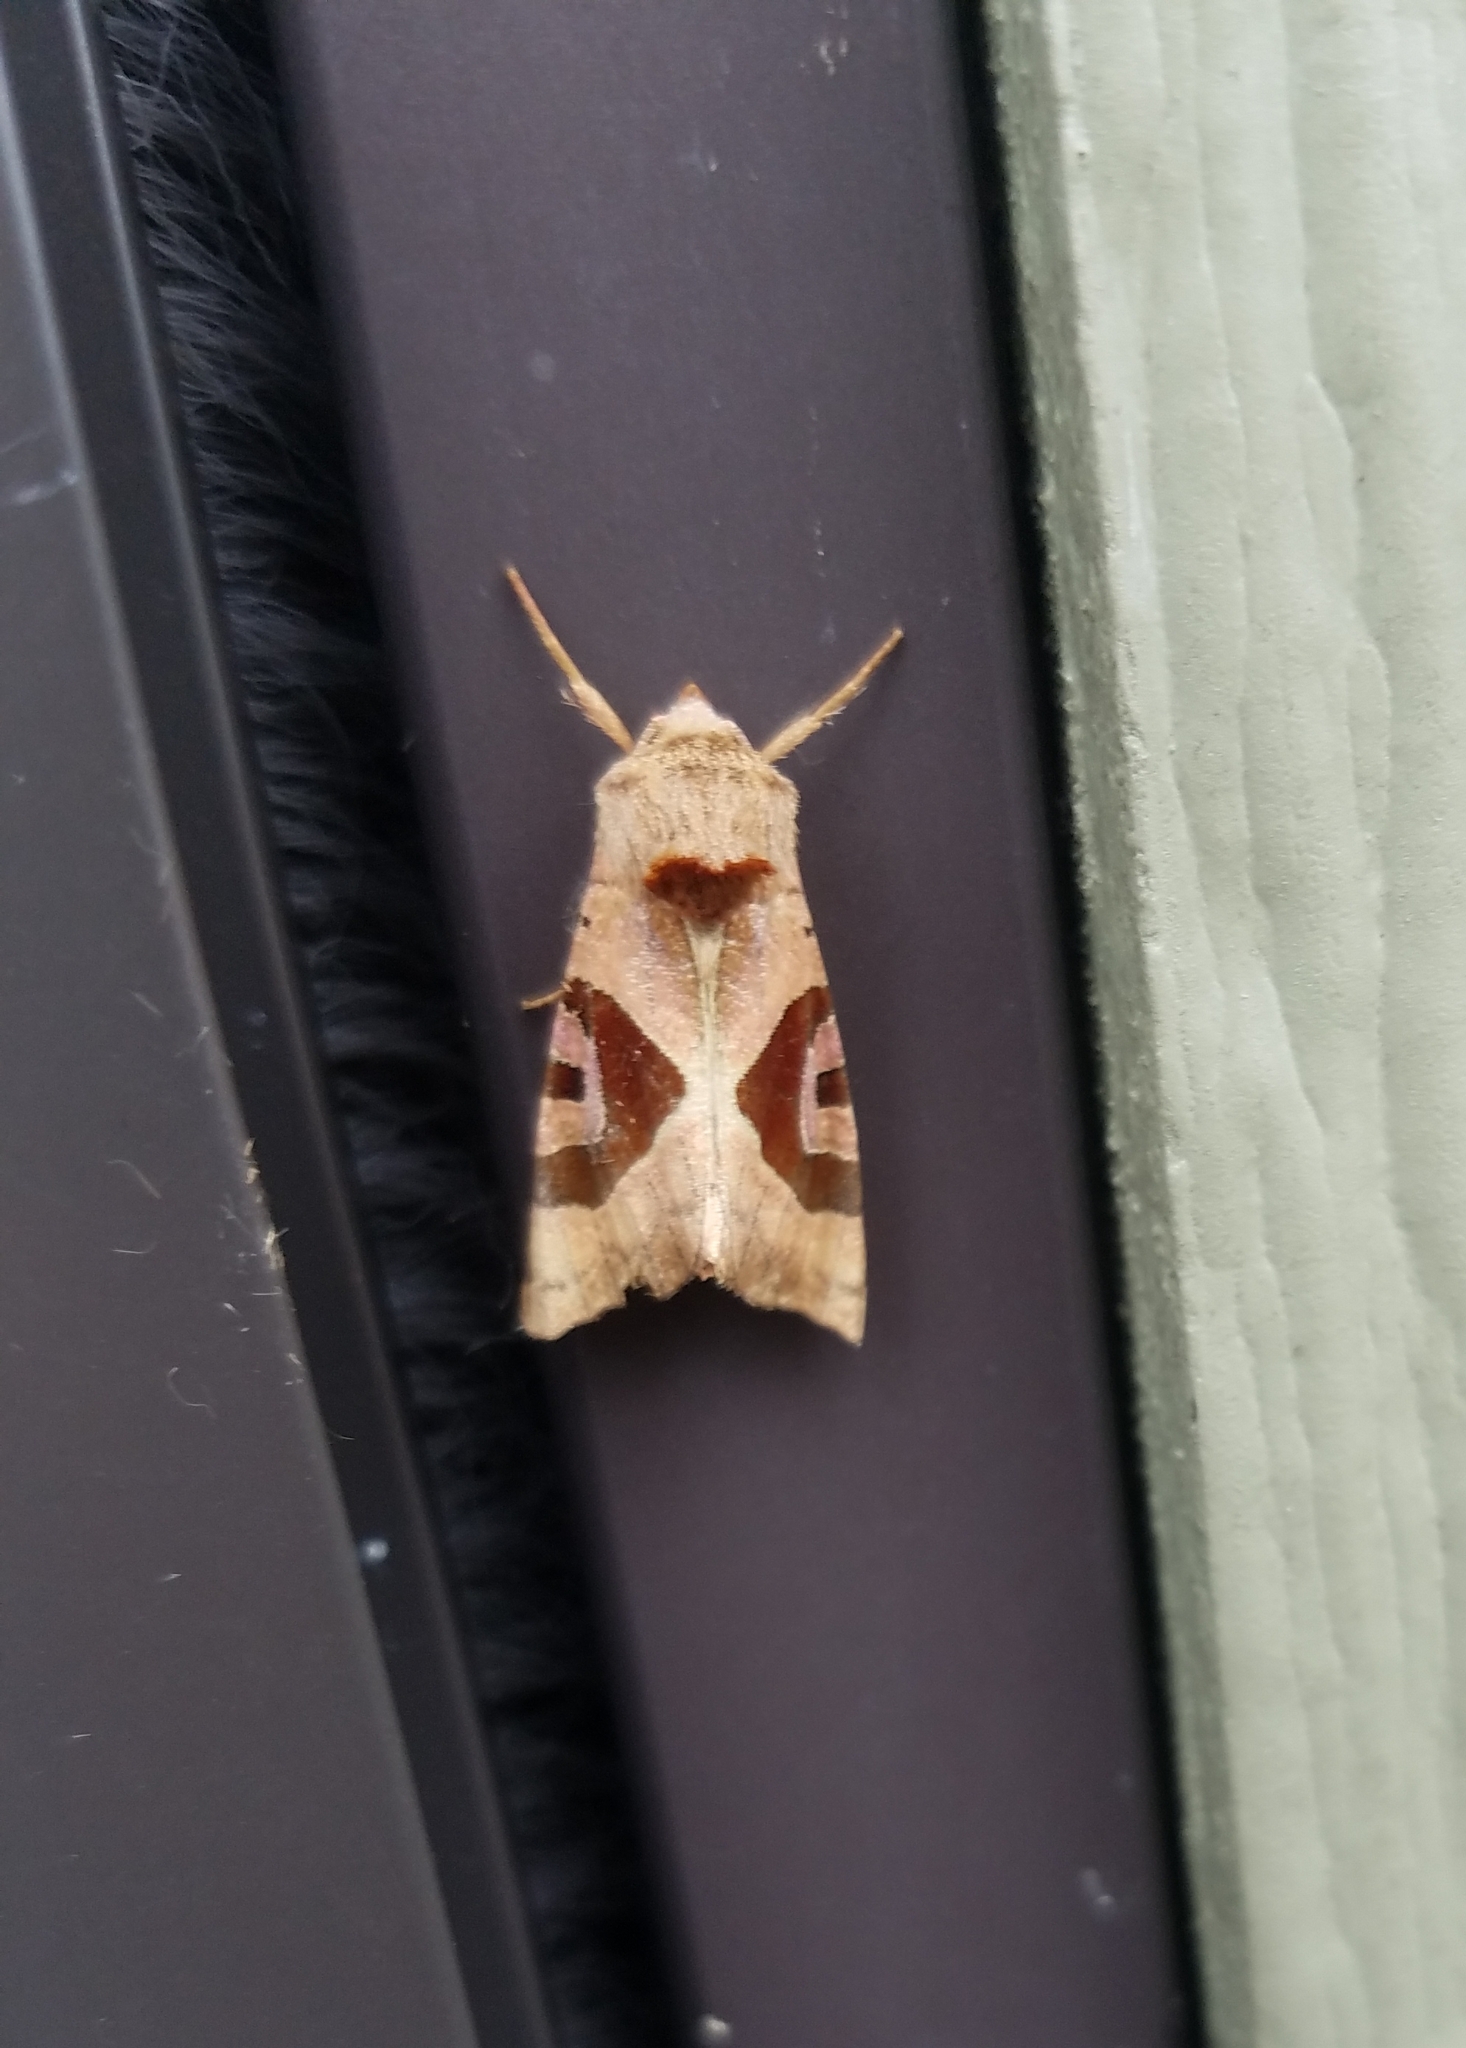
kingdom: Animalia
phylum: Arthropoda
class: Insecta
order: Lepidoptera
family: Noctuidae
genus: Conservula
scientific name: Conservula anodonta
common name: Sharp angle shades
